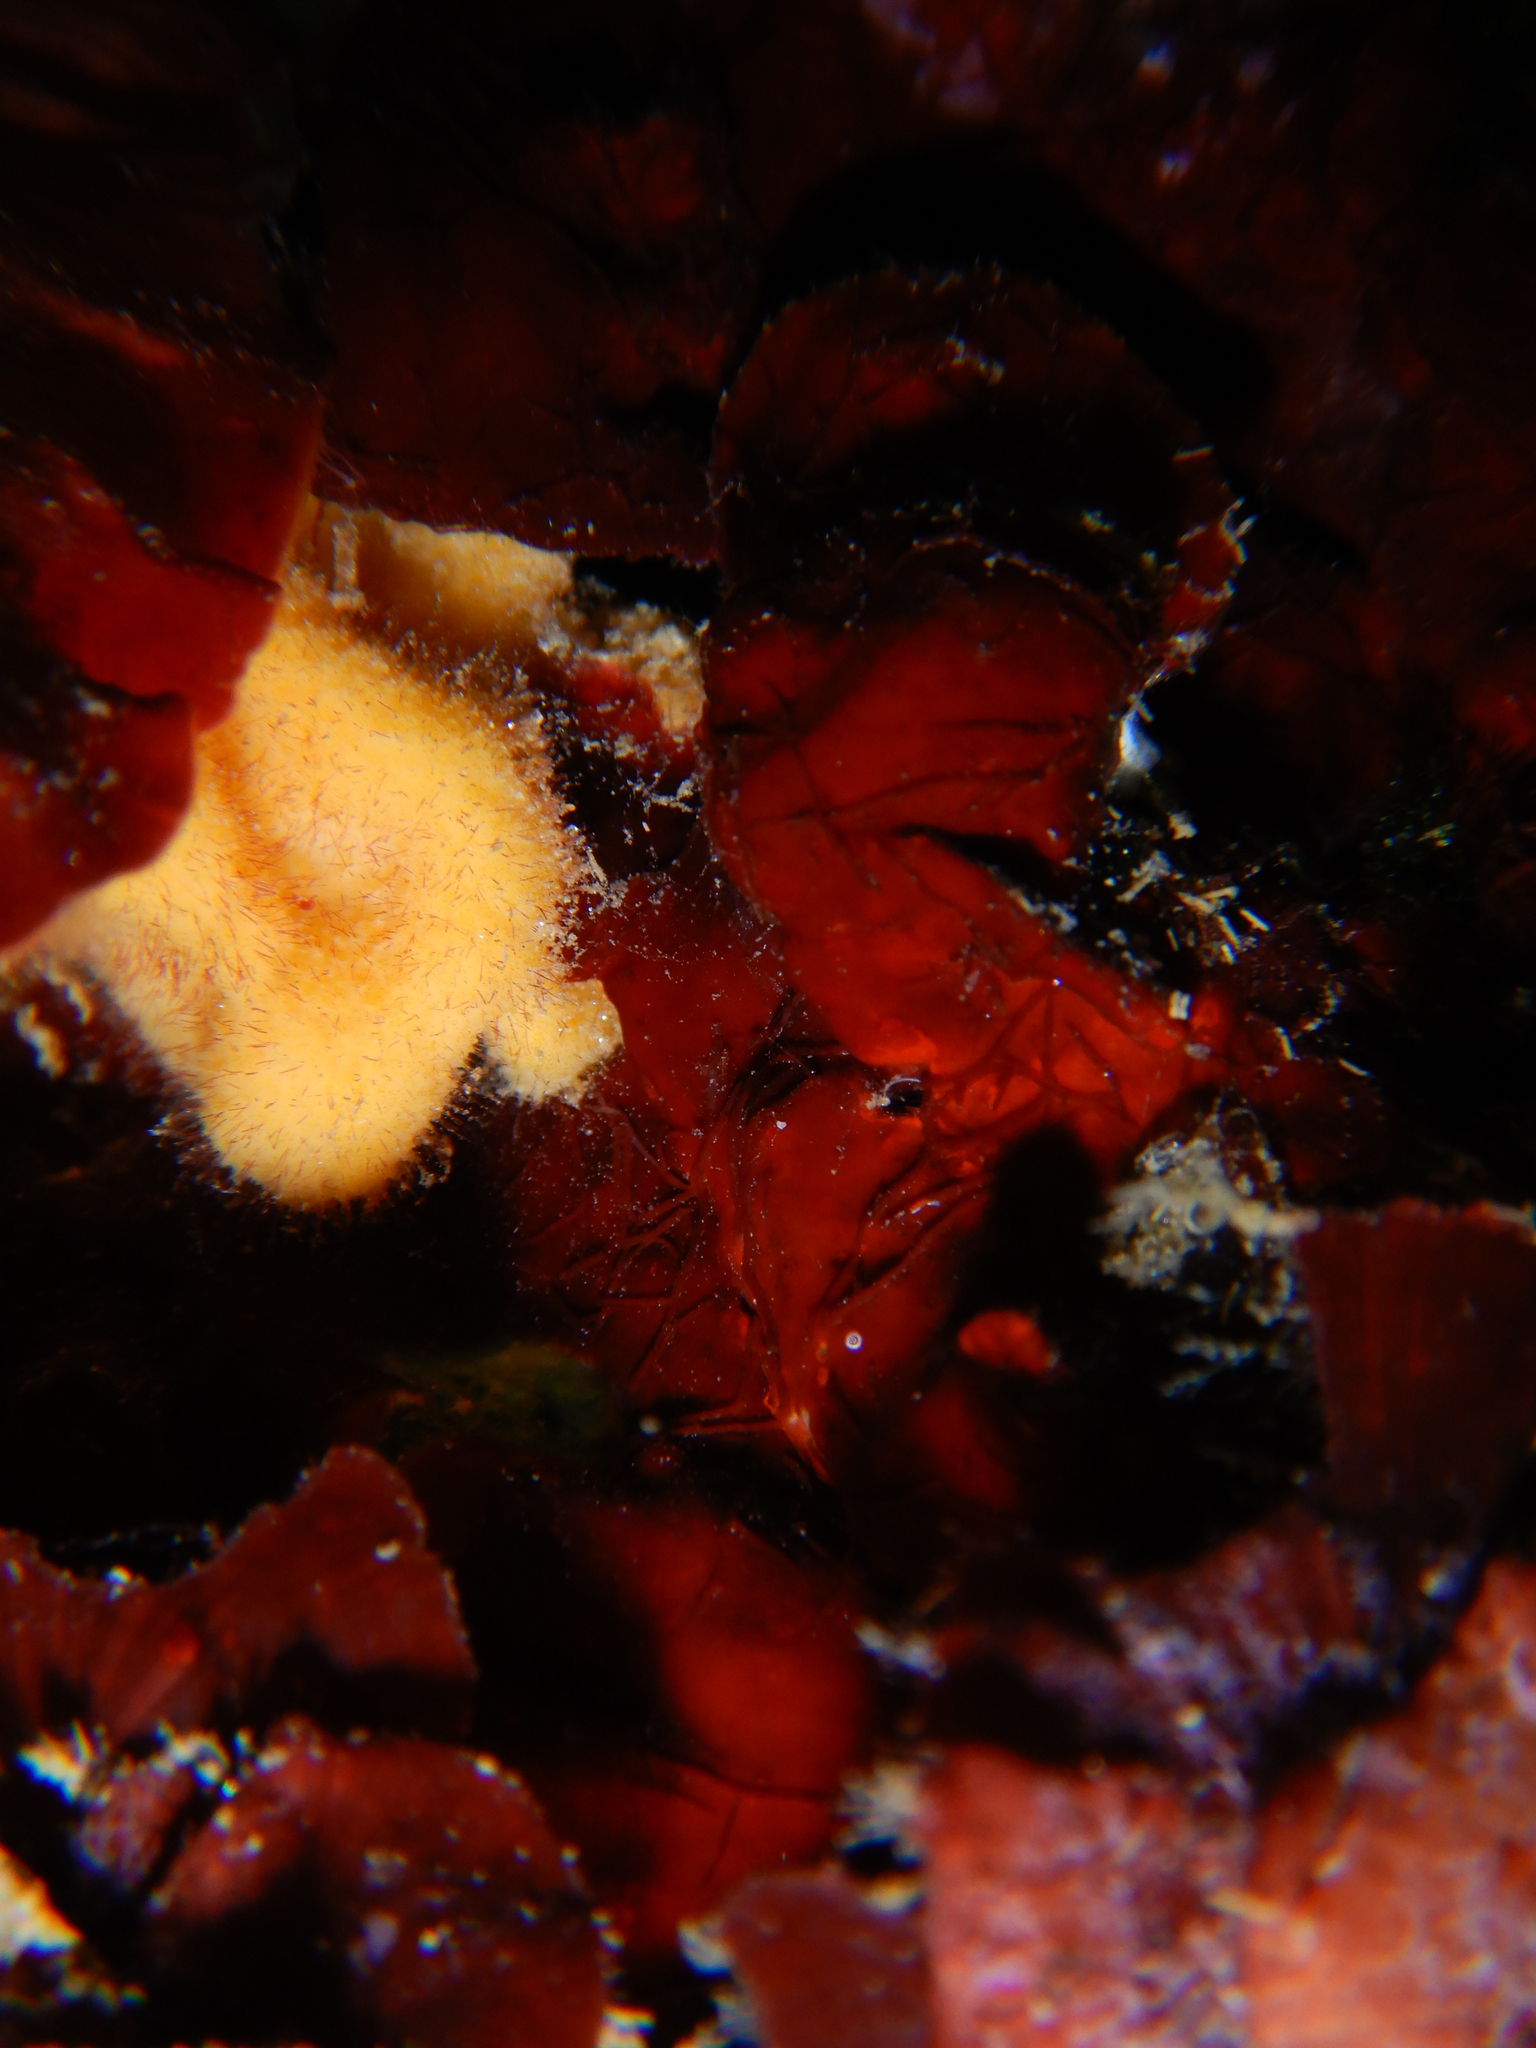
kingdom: Animalia
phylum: Porifera
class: Demospongiae
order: Axinellida
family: Axinellidae
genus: Axinella
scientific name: Axinella damicornis
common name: Crumpled duster sponge
